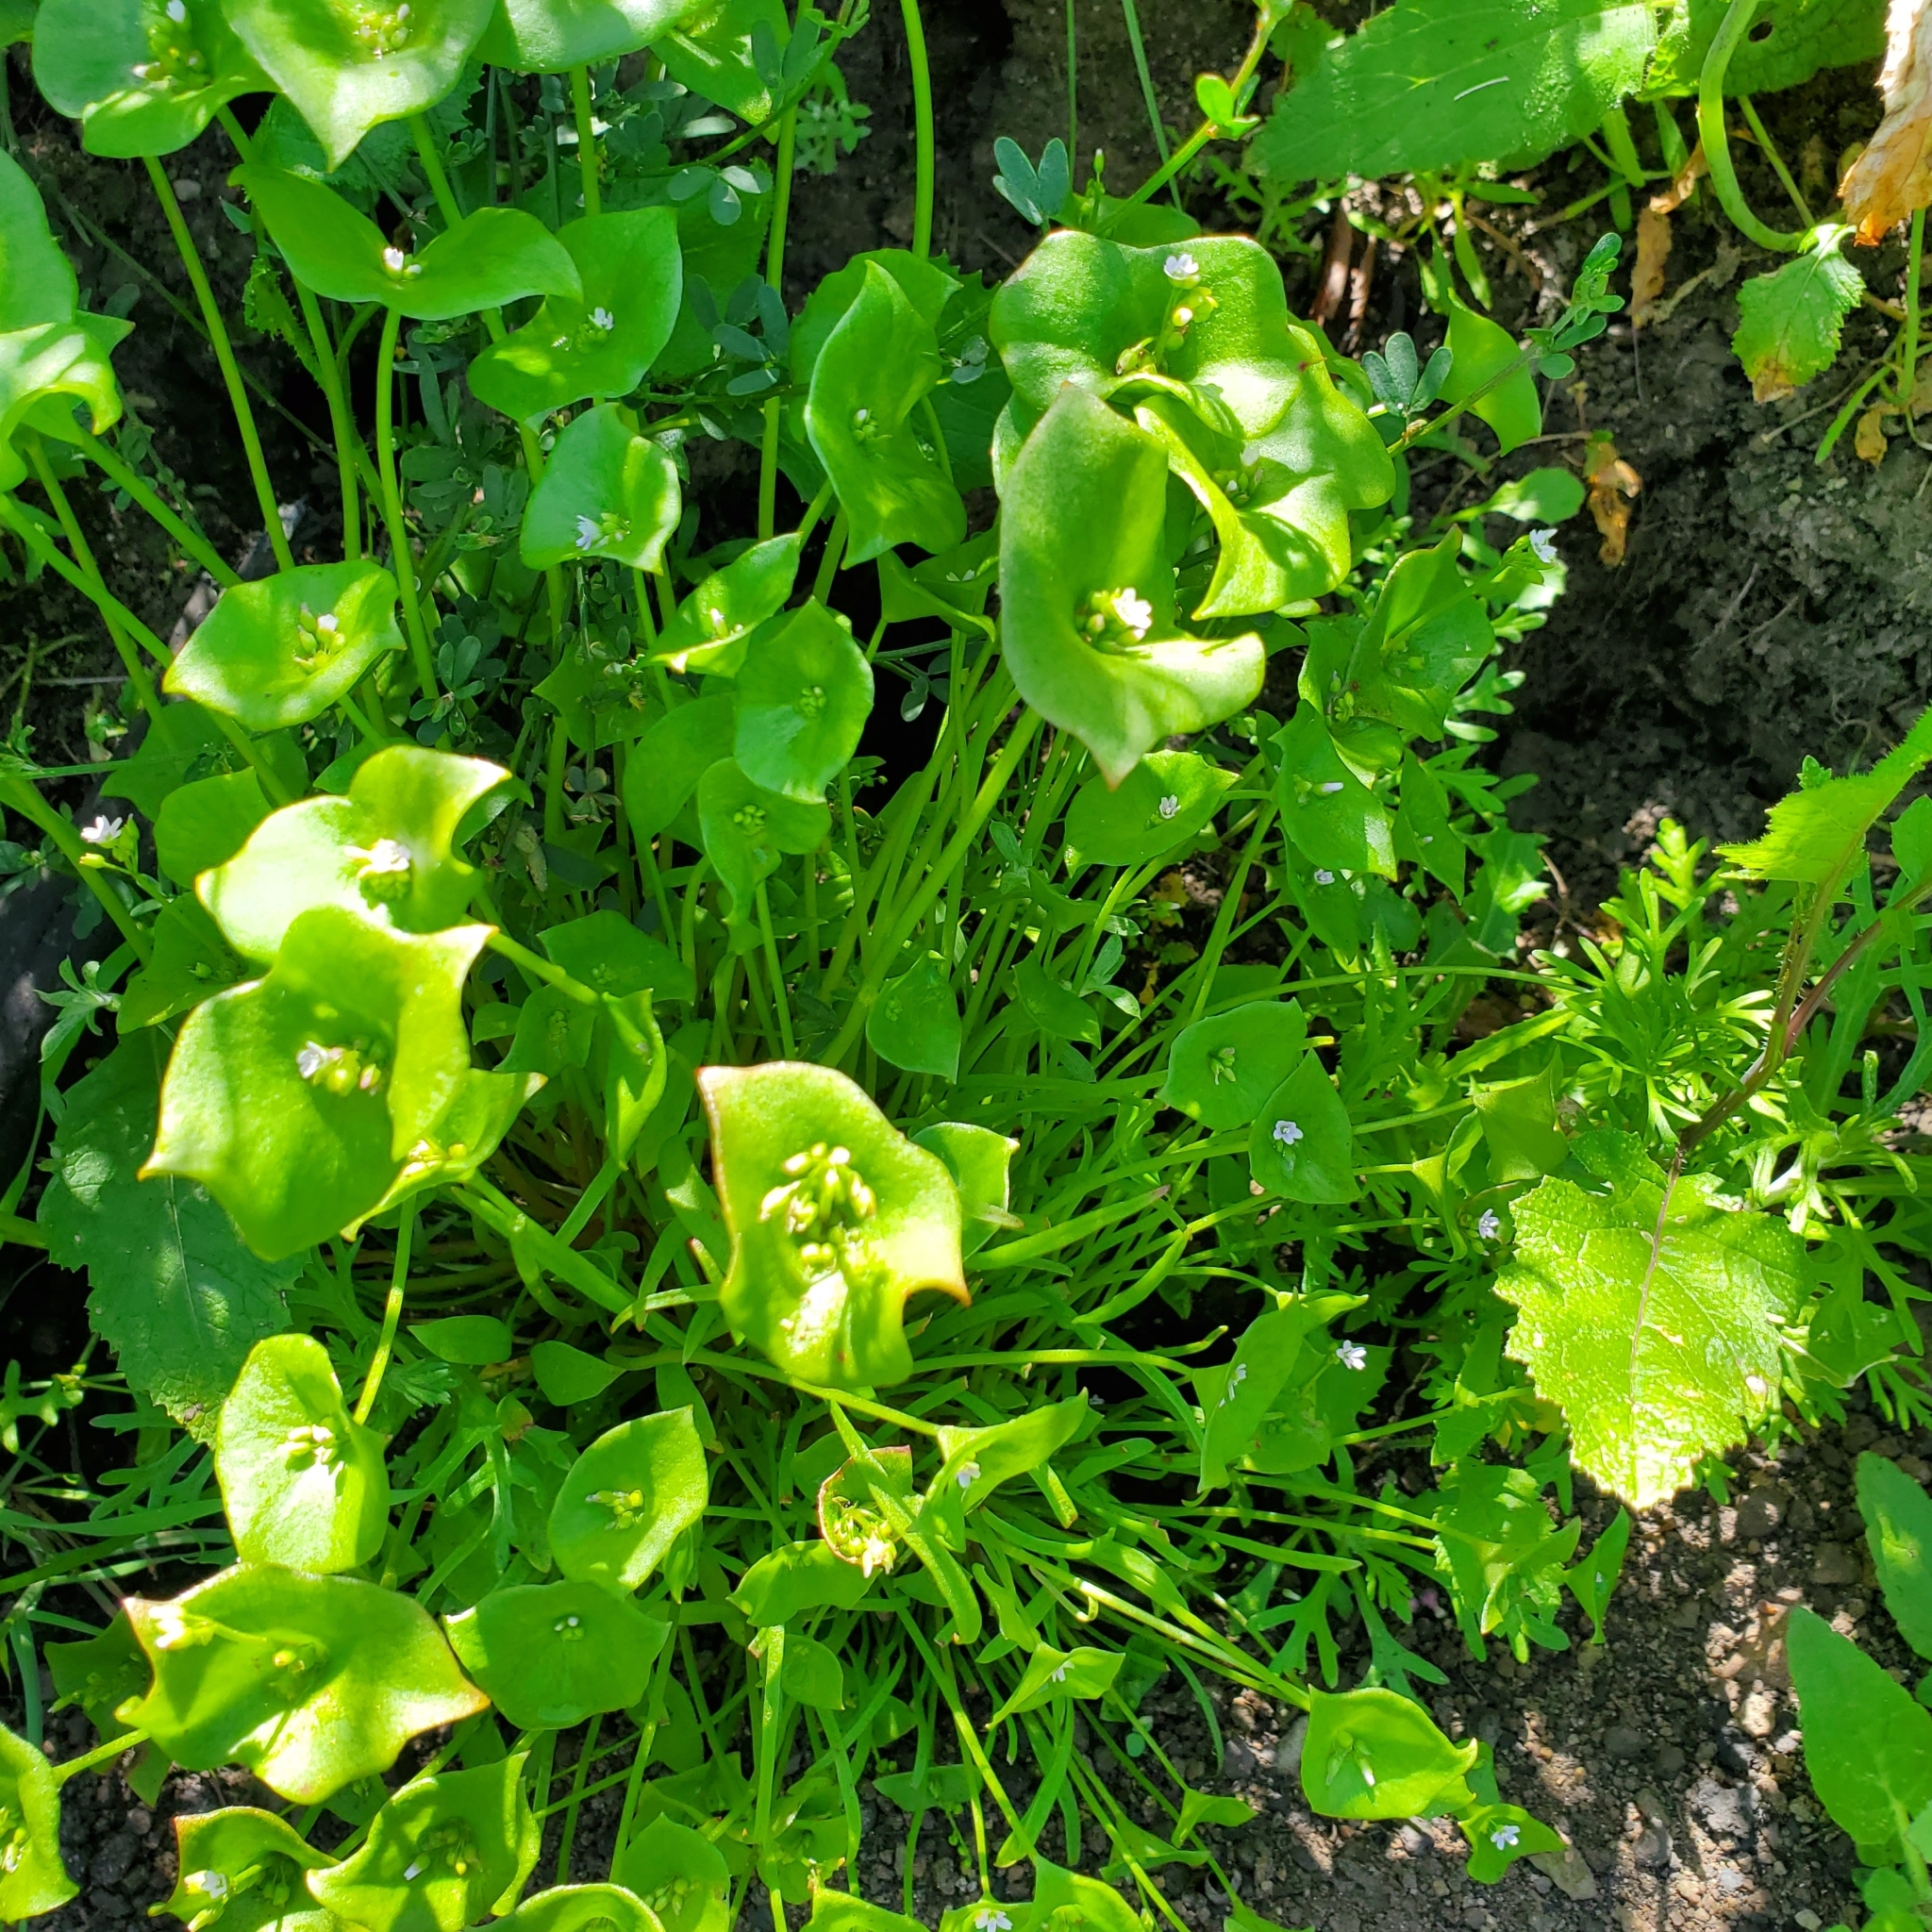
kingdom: Plantae
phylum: Tracheophyta
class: Magnoliopsida
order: Caryophyllales
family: Montiaceae
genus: Claytonia
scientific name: Claytonia perfoliata
